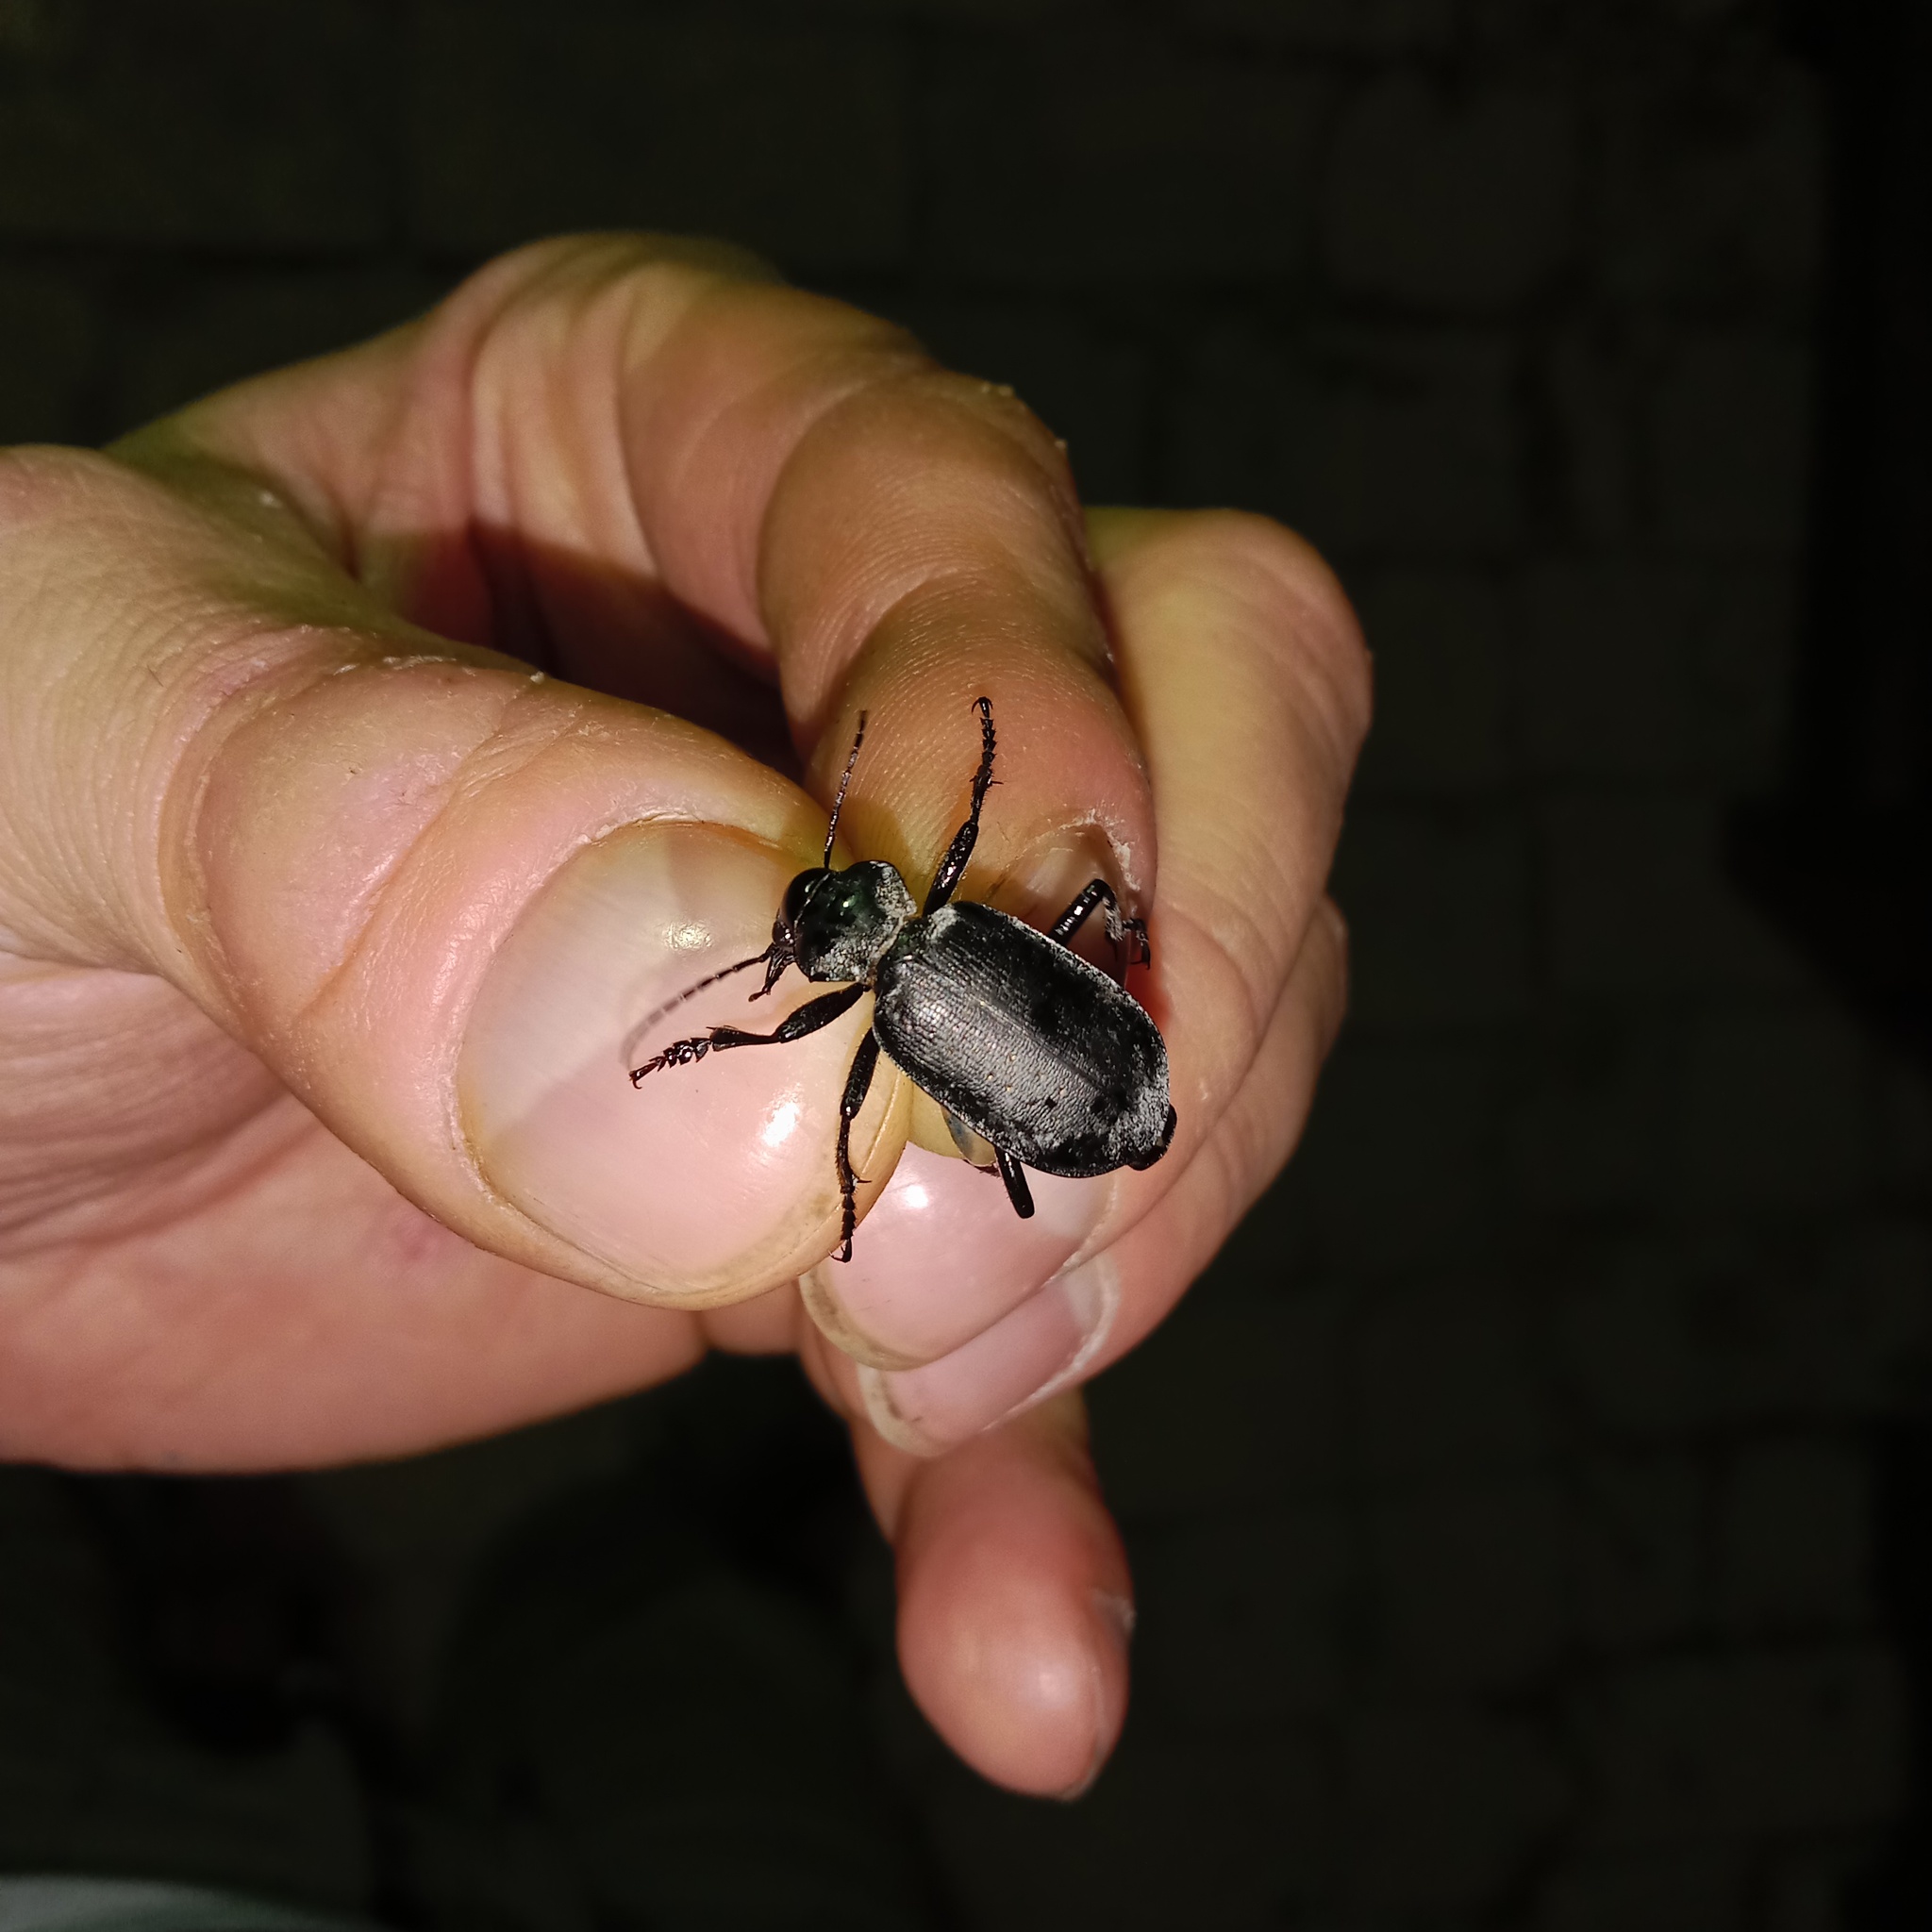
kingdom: Animalia
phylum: Arthropoda
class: Insecta
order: Coleoptera
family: Carabidae
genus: Calosoma
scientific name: Calosoma maderae
